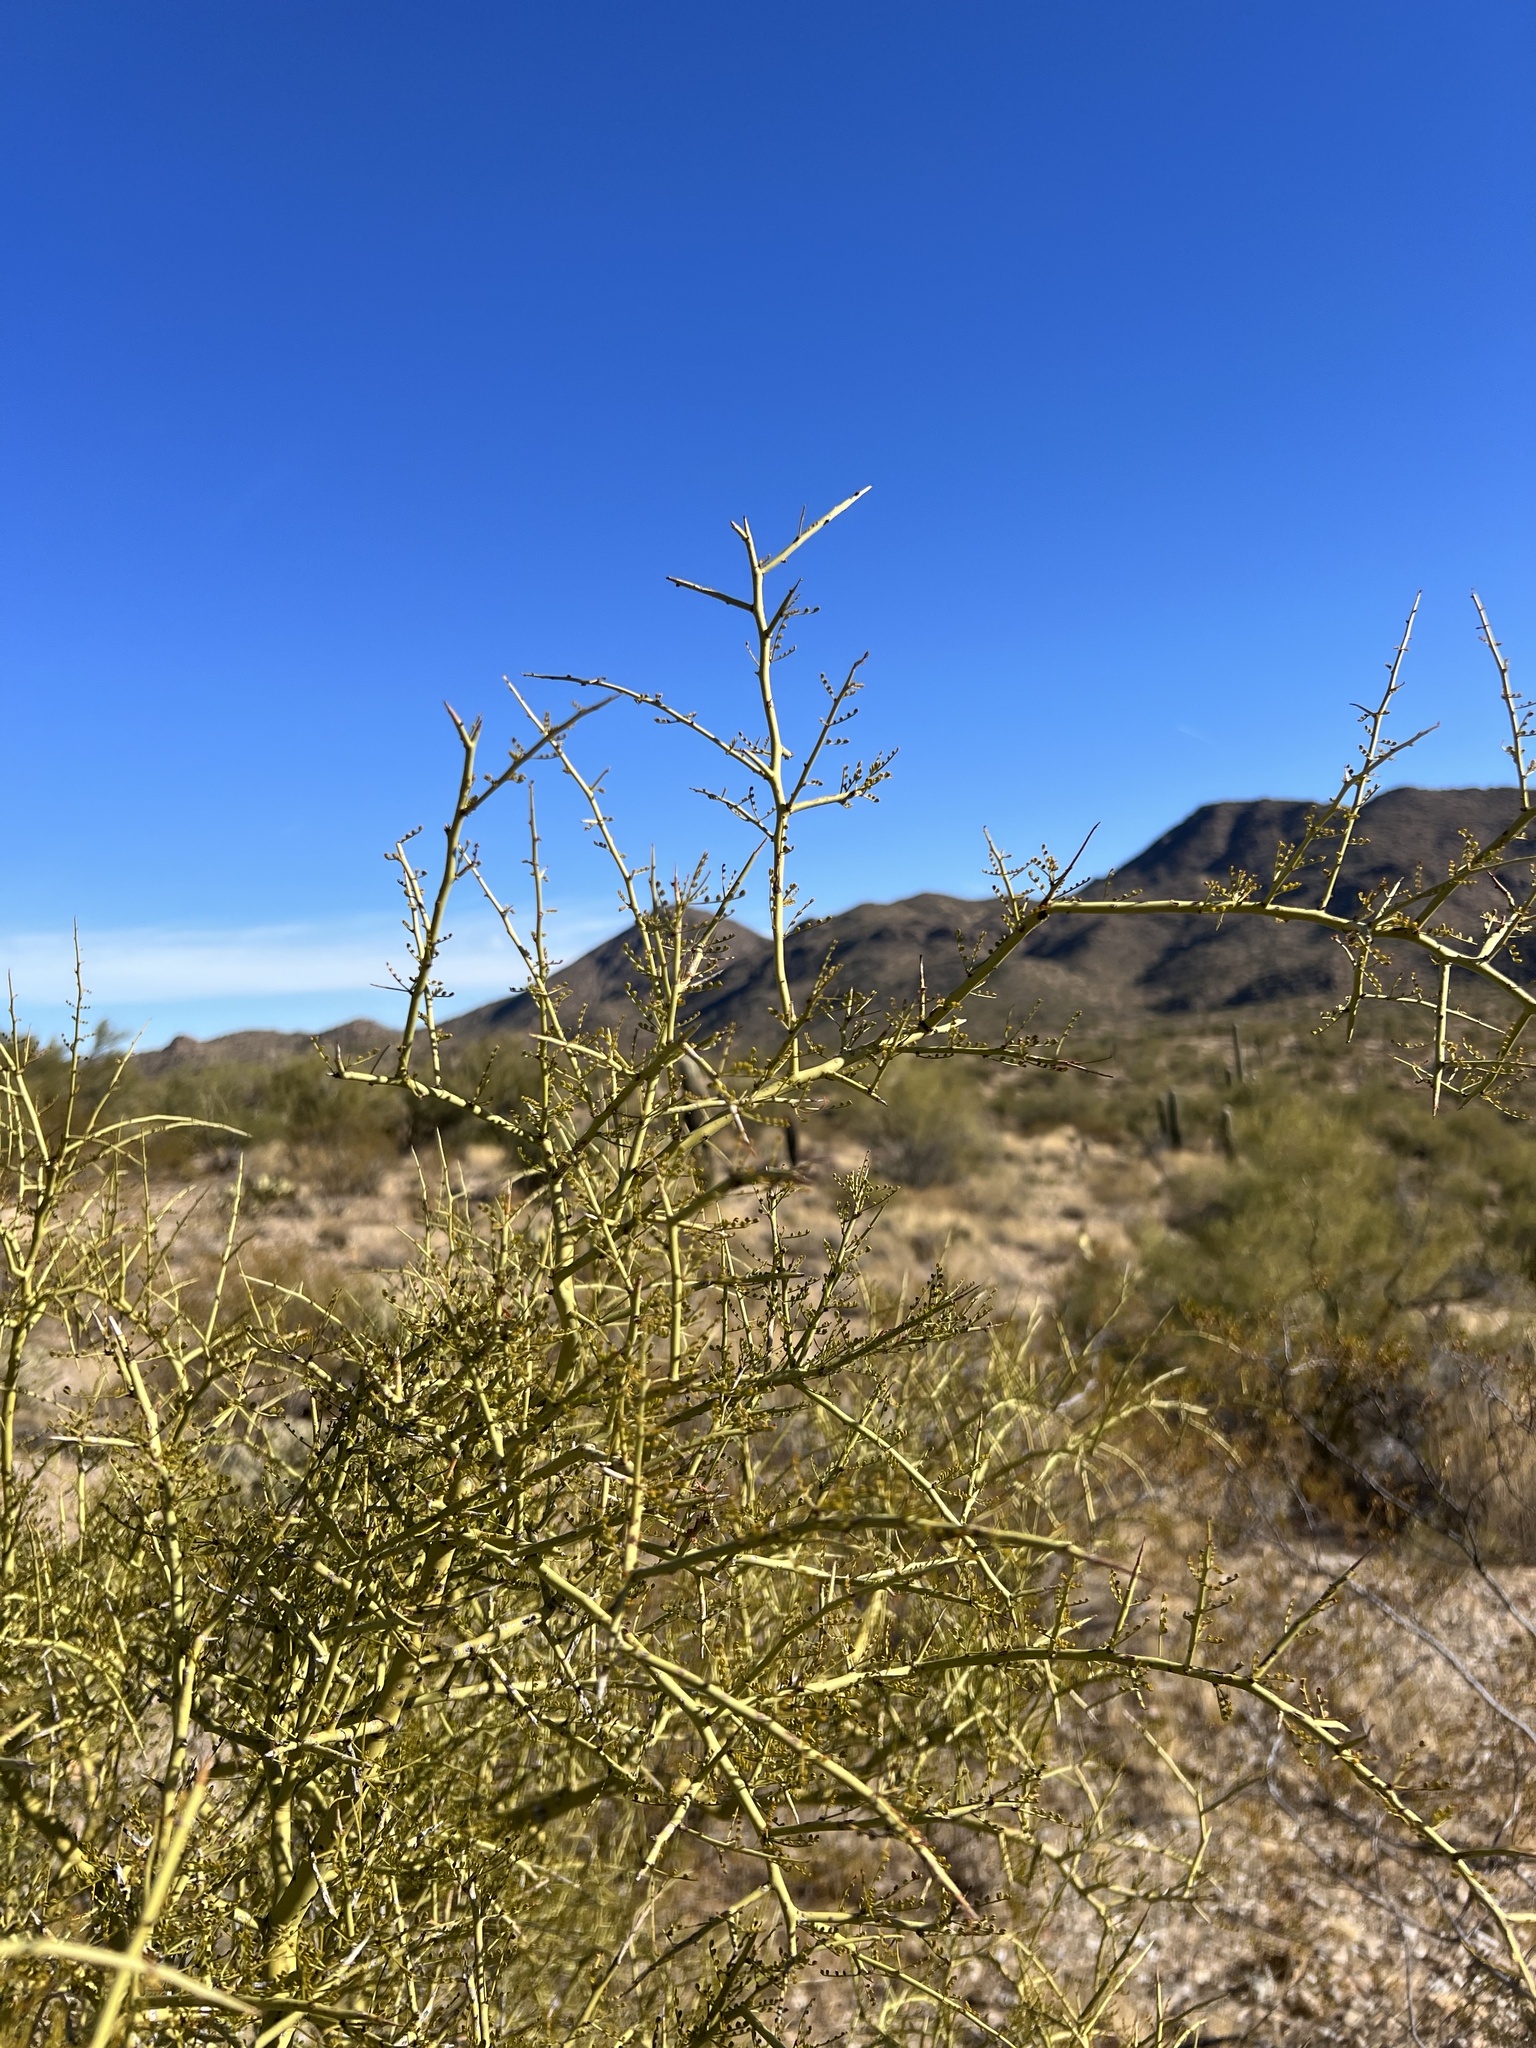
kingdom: Plantae
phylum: Tracheophyta
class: Magnoliopsida
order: Fabales
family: Fabaceae
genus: Parkinsonia
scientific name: Parkinsonia microphylla
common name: Yellow paloverde
